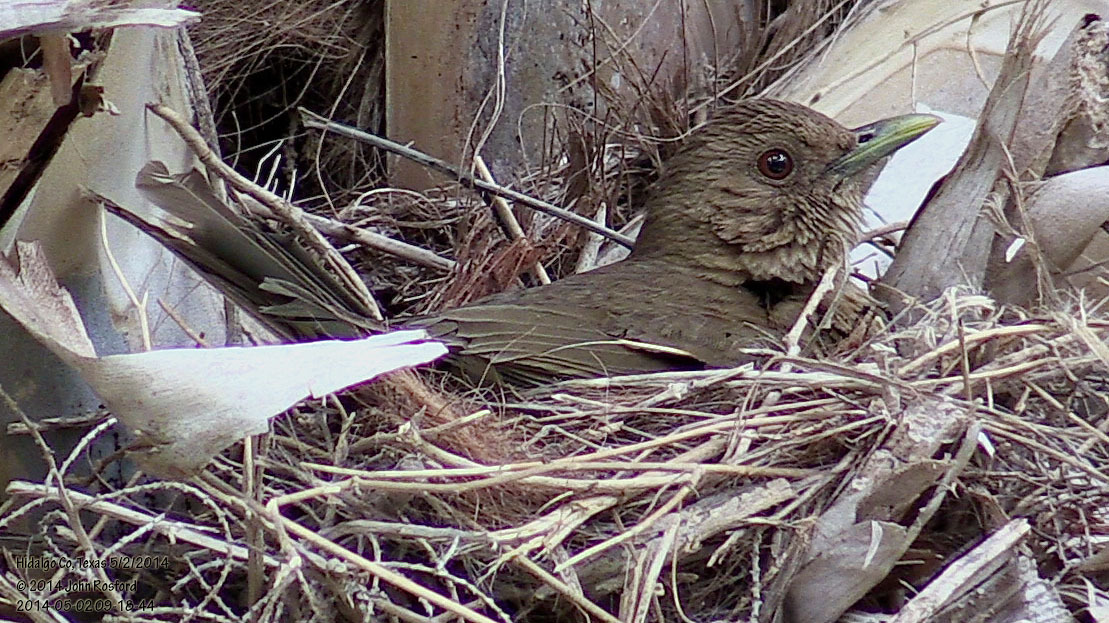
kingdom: Animalia
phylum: Chordata
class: Aves
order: Passeriformes
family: Turdidae
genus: Turdus
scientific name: Turdus grayi
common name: Clay-colored thrush
